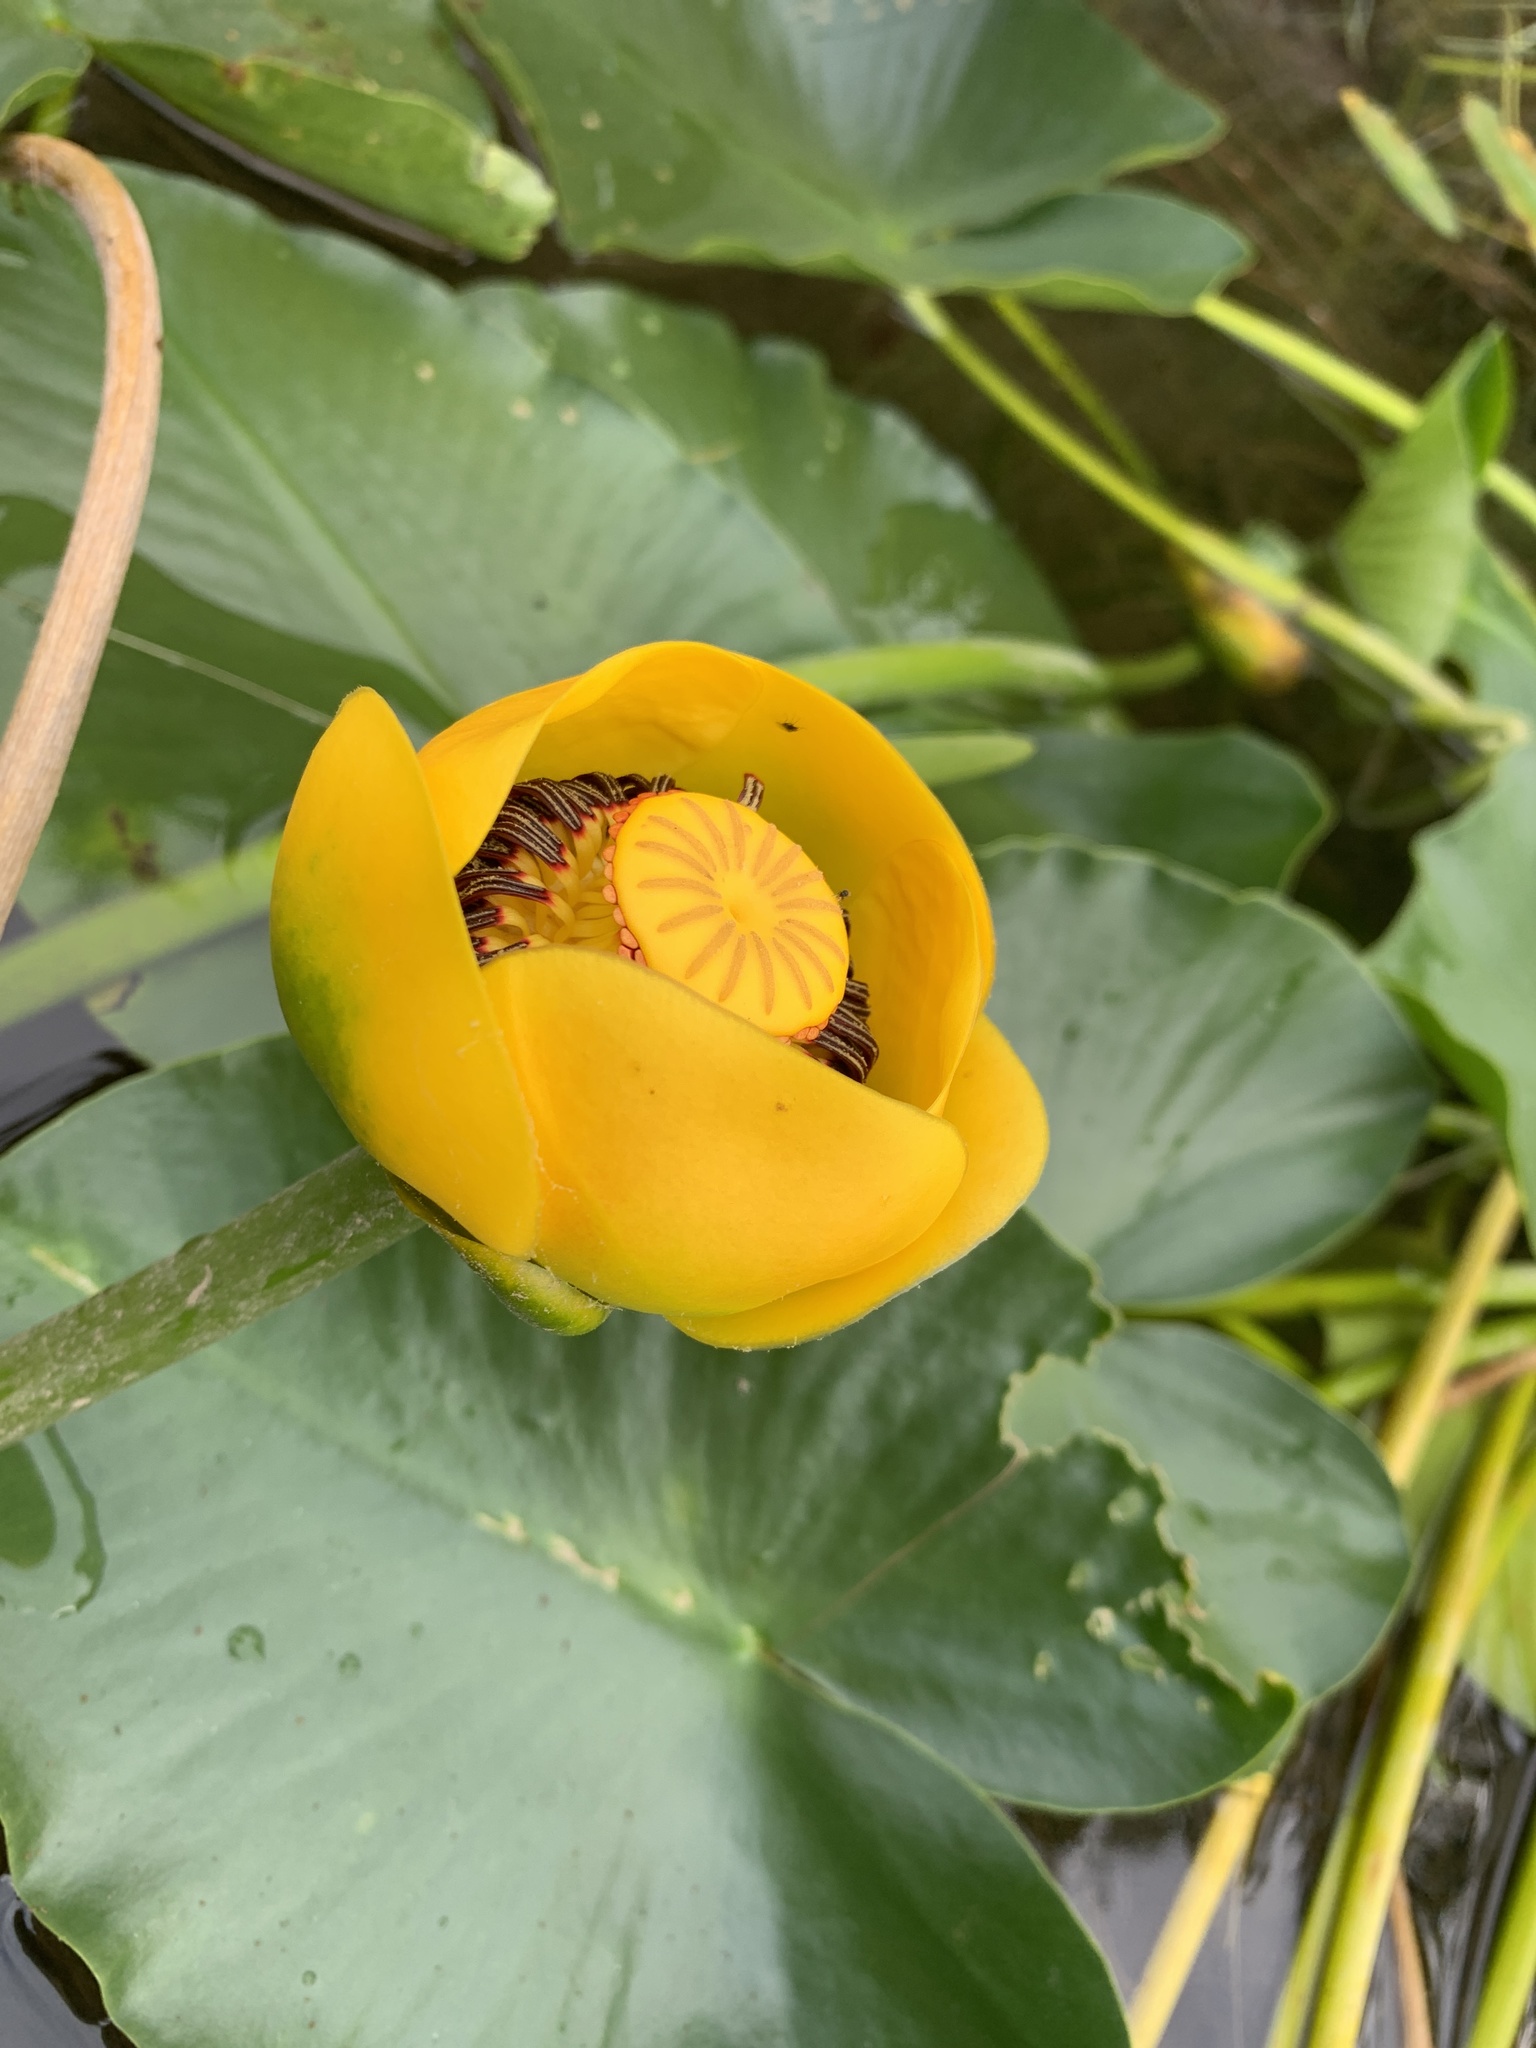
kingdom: Plantae
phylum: Tracheophyta
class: Magnoliopsida
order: Nymphaeales
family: Nymphaeaceae
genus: Nuphar
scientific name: Nuphar polysepala
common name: Rocky mountain cow-lily
